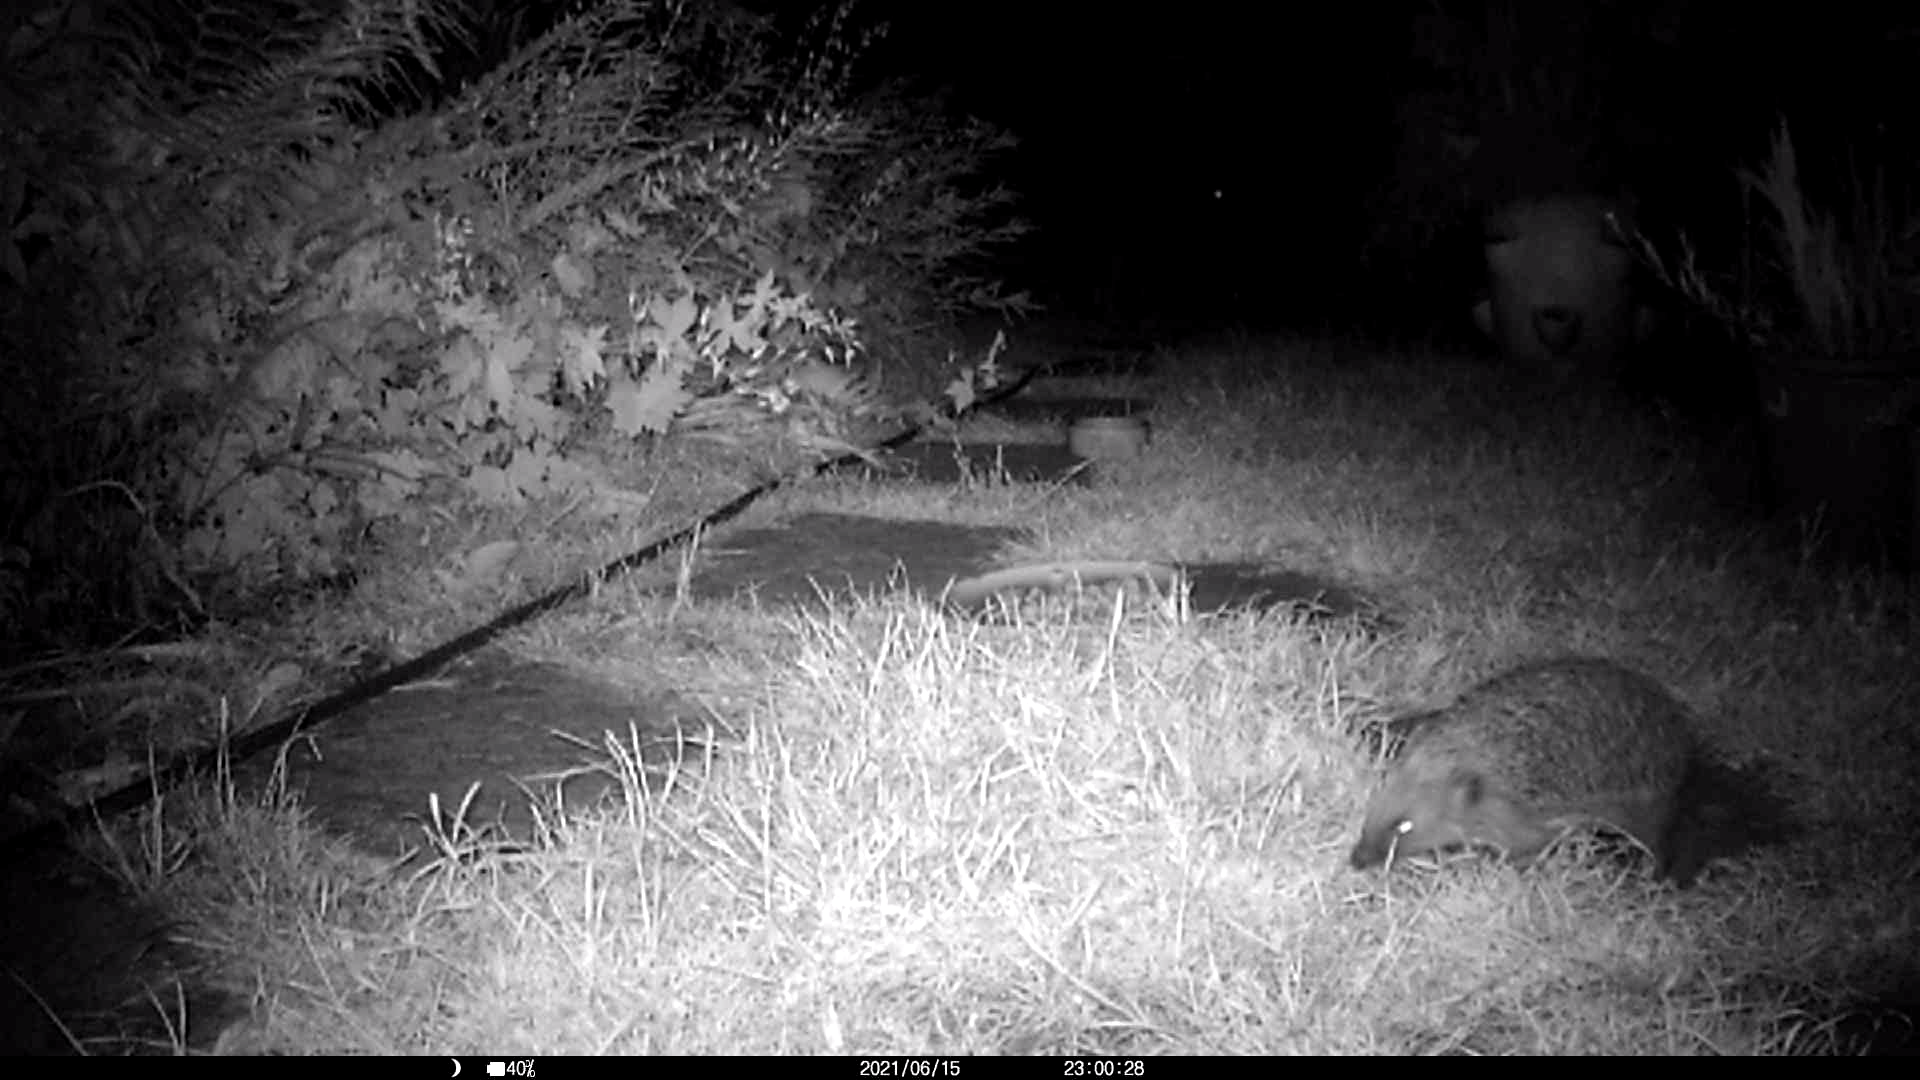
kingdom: Animalia
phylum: Chordata
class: Mammalia
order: Erinaceomorpha
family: Erinaceidae
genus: Erinaceus
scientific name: Erinaceus europaeus
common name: West european hedgehog
